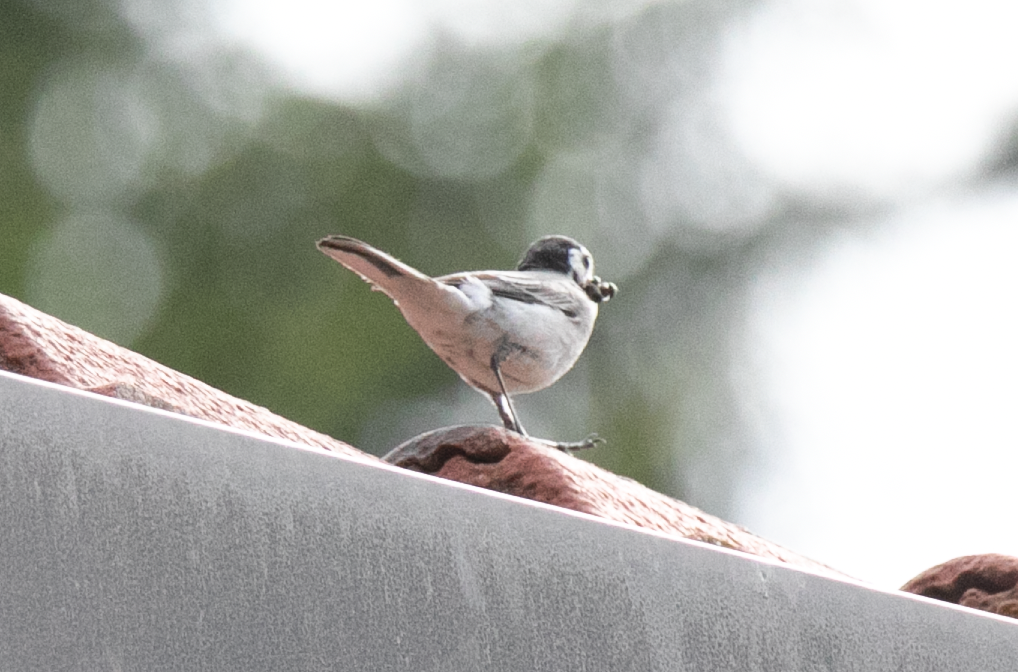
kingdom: Animalia
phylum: Chordata
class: Aves
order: Passeriformes
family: Motacillidae
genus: Motacilla
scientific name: Motacilla alba
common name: White wagtail
